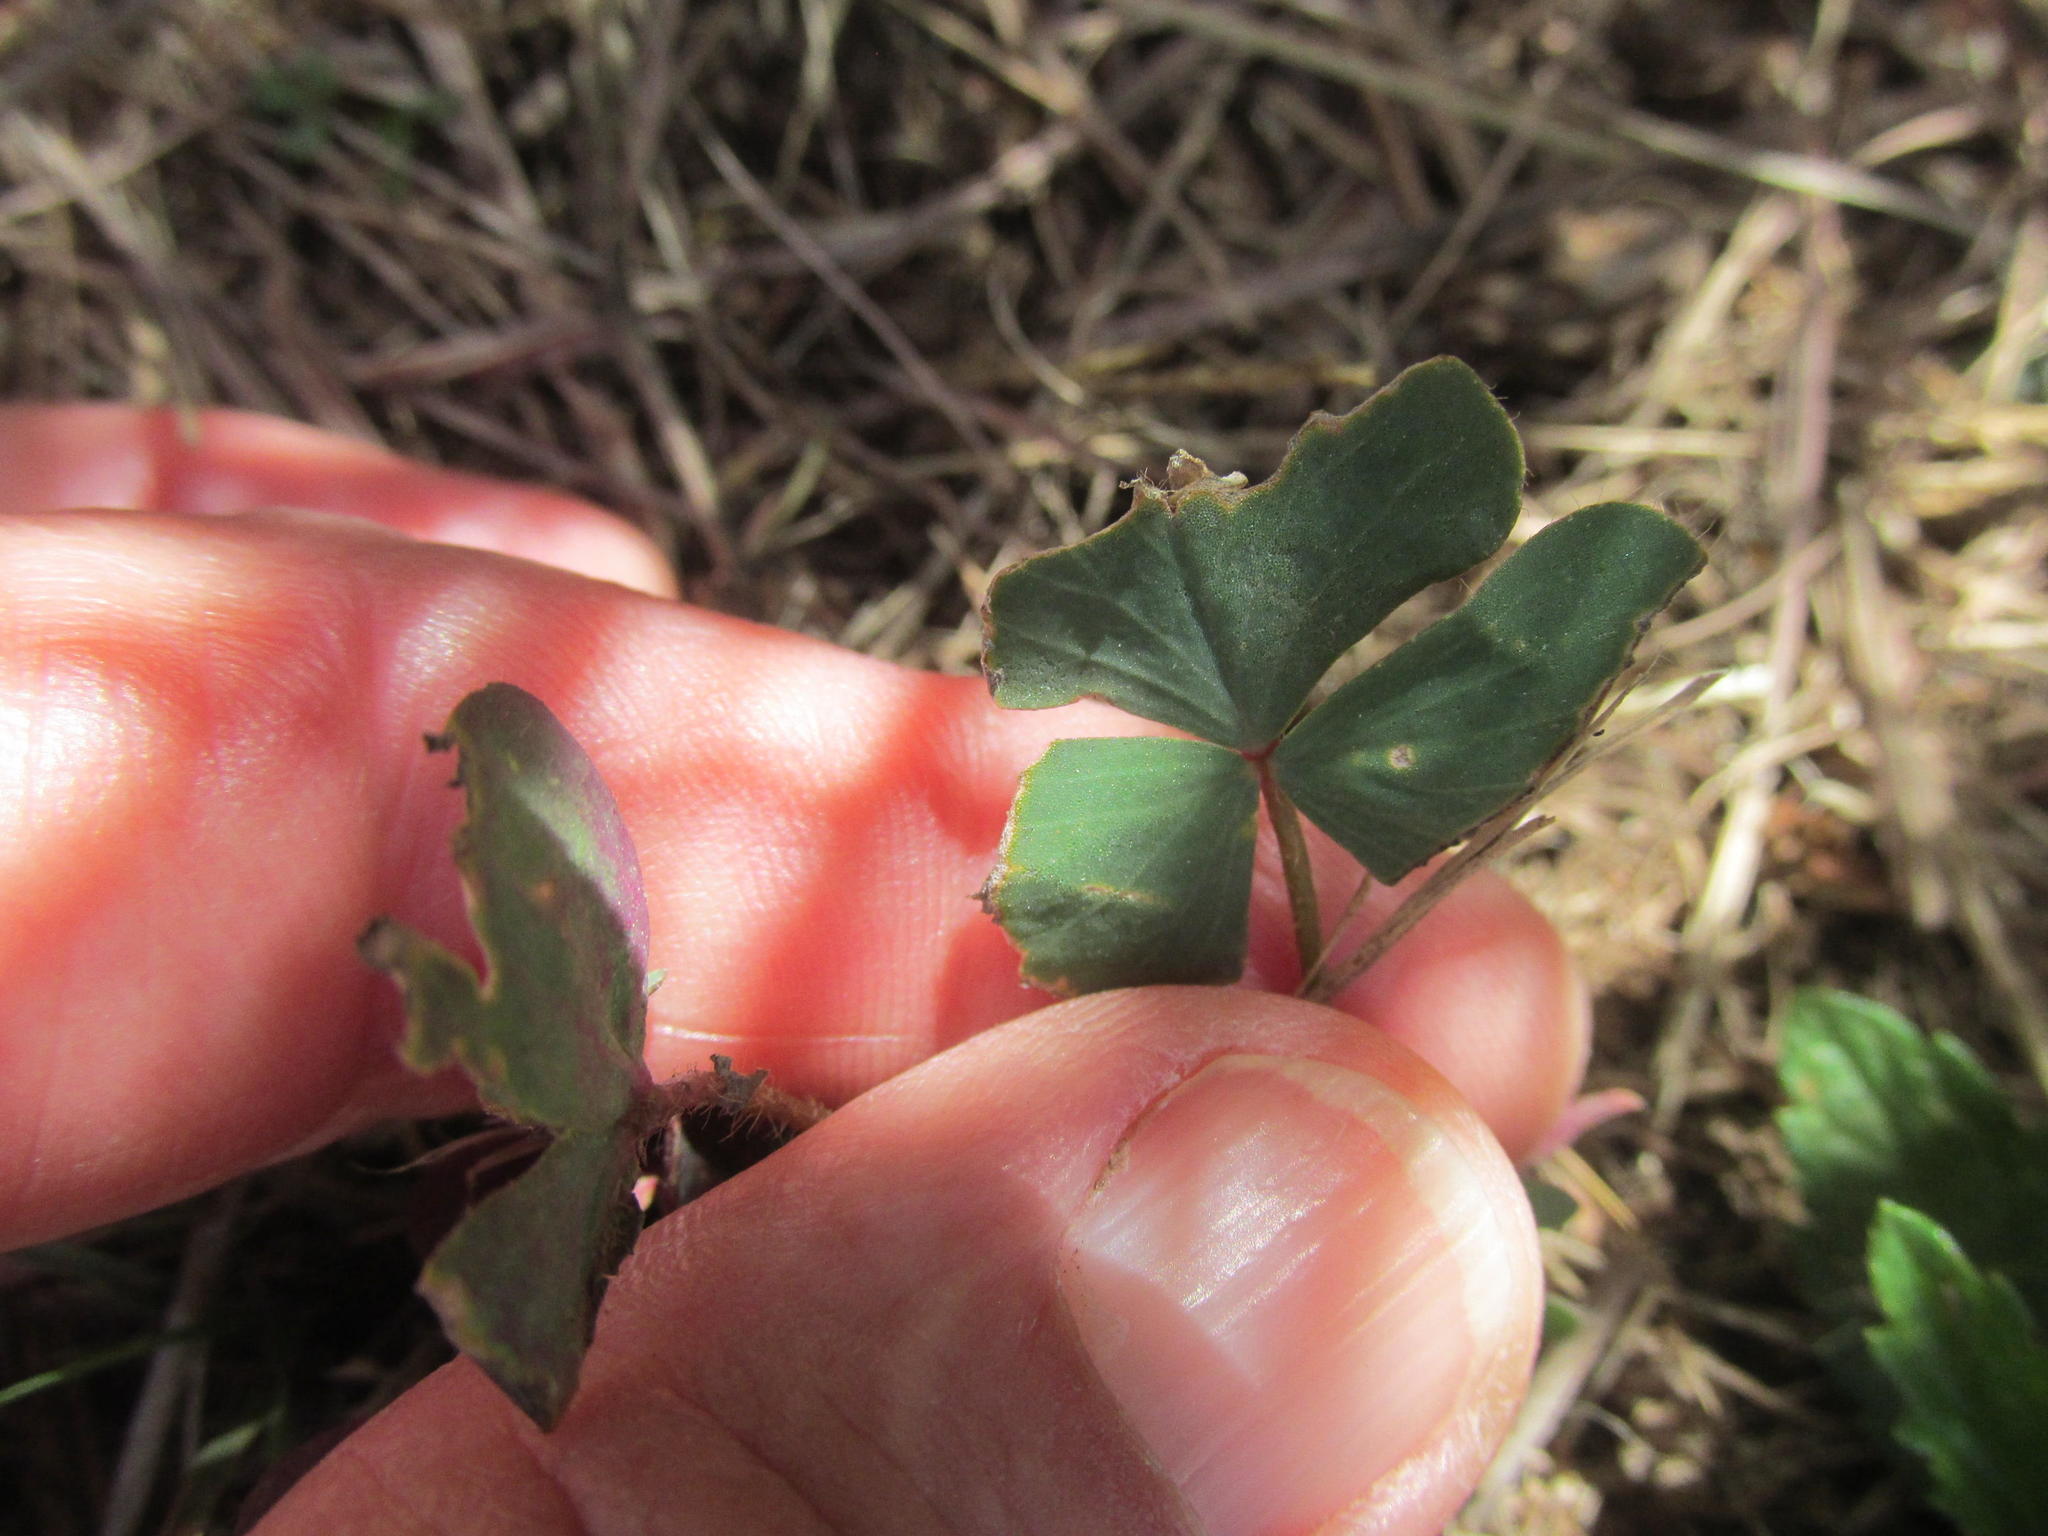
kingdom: Plantae
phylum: Tracheophyta
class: Magnoliopsida
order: Oxalidales
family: Oxalidaceae
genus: Oxalis
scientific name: Oxalis obliquifolia
